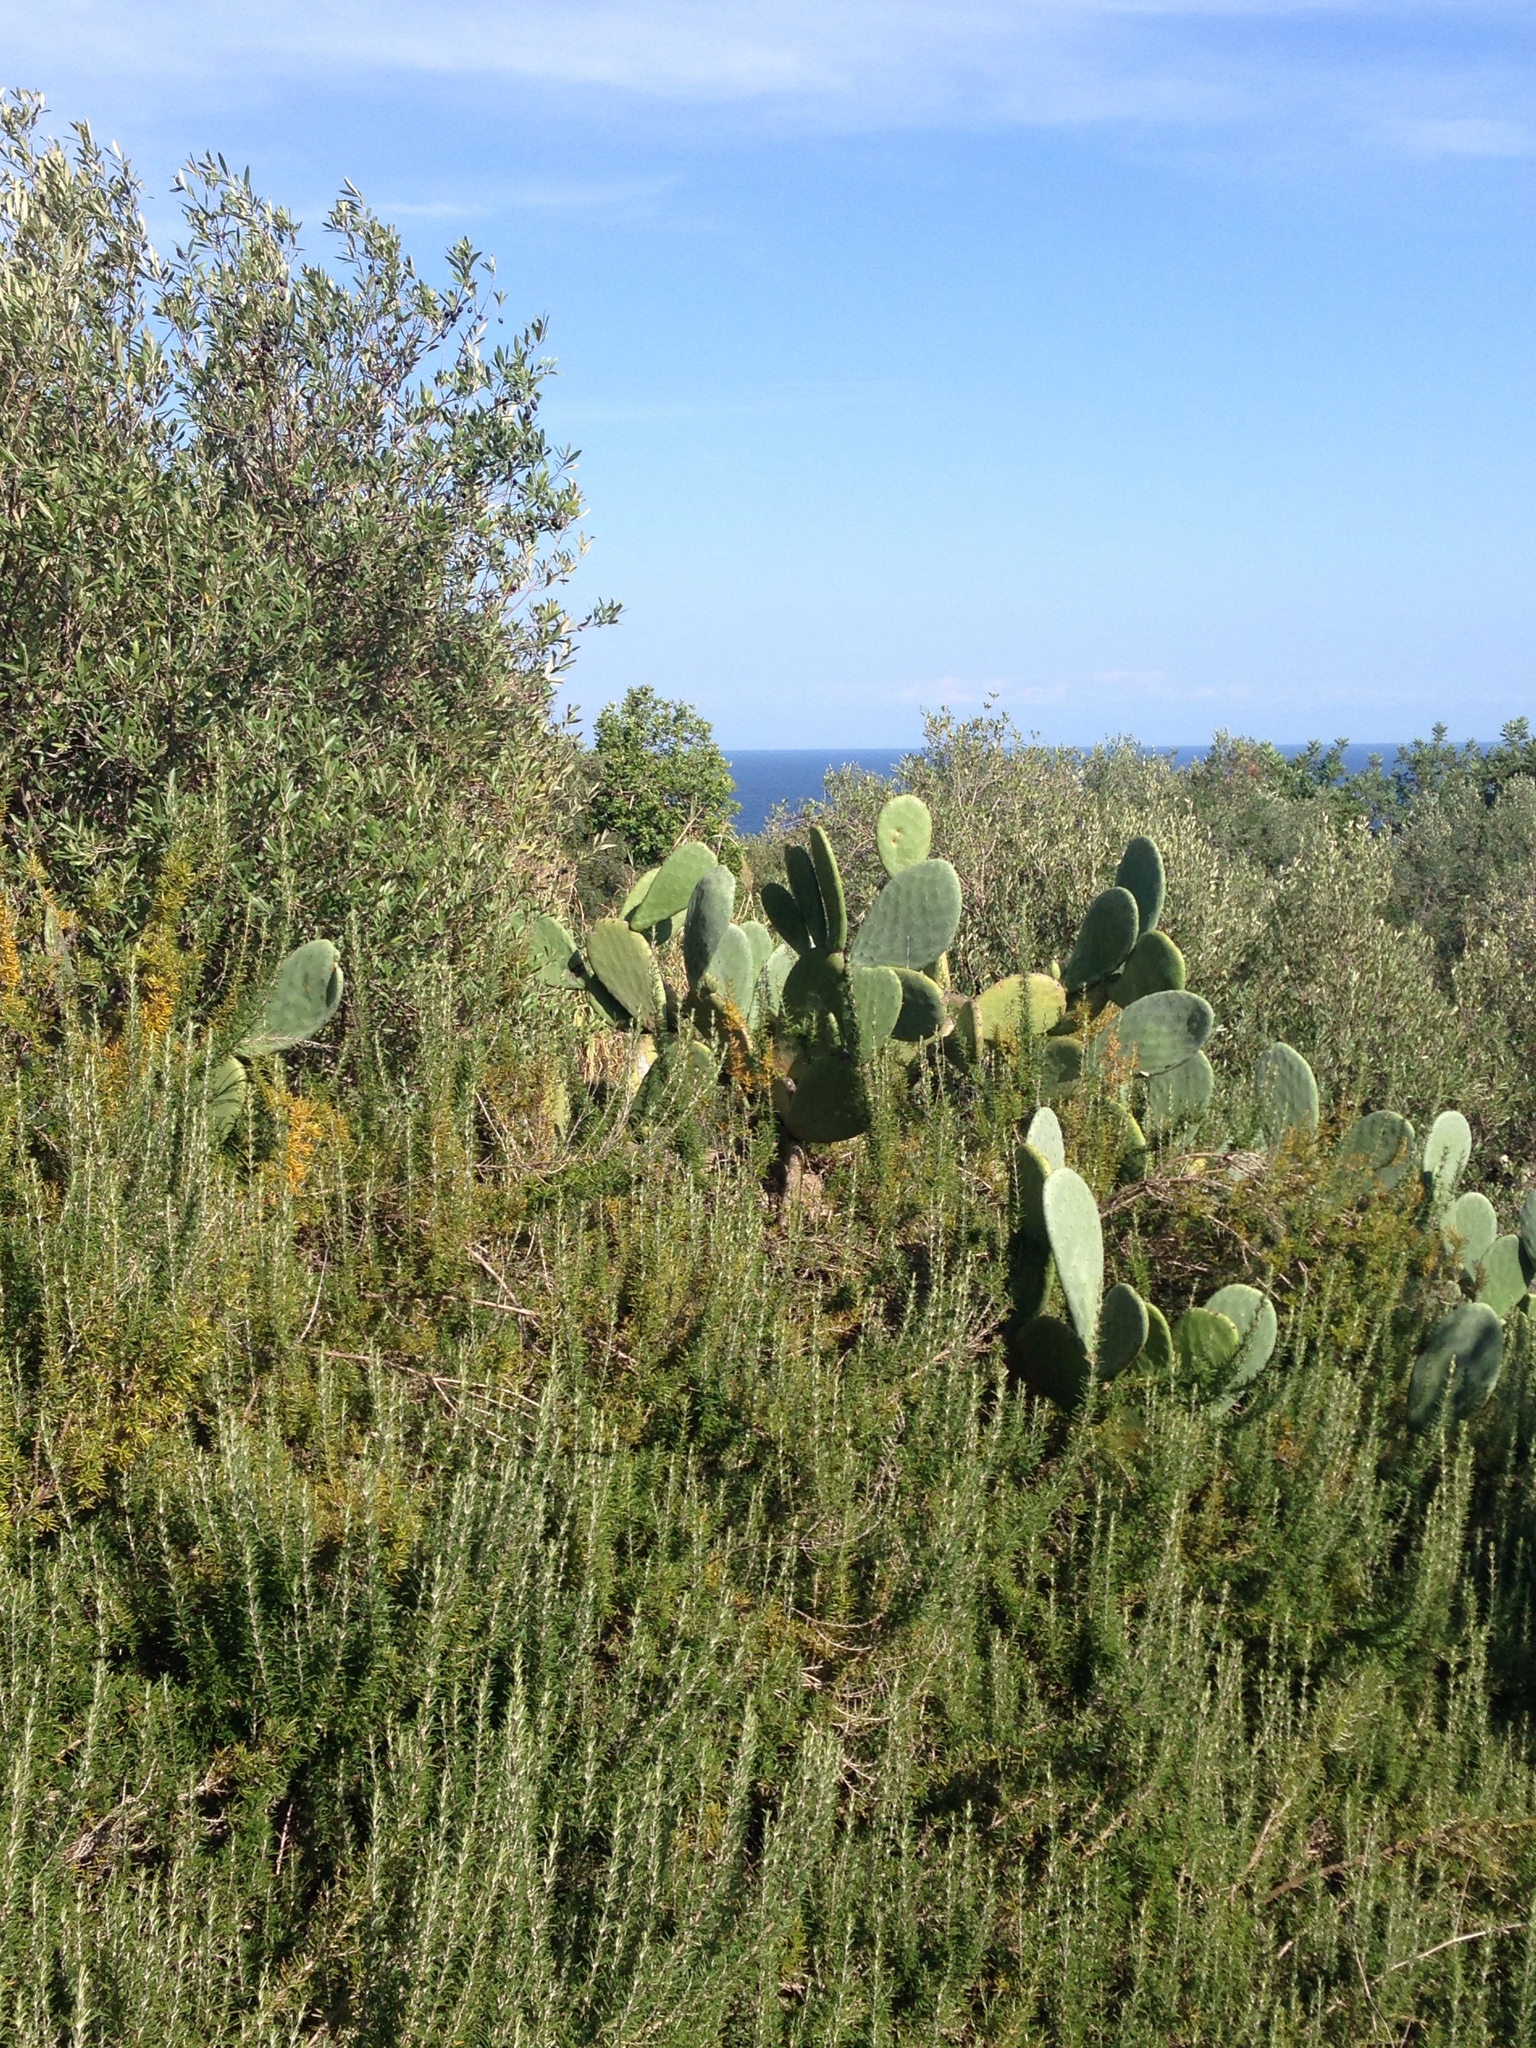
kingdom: Plantae
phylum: Tracheophyta
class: Magnoliopsida
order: Caryophyllales
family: Cactaceae
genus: Opuntia
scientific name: Opuntia ficus-indica
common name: Barbary fig
